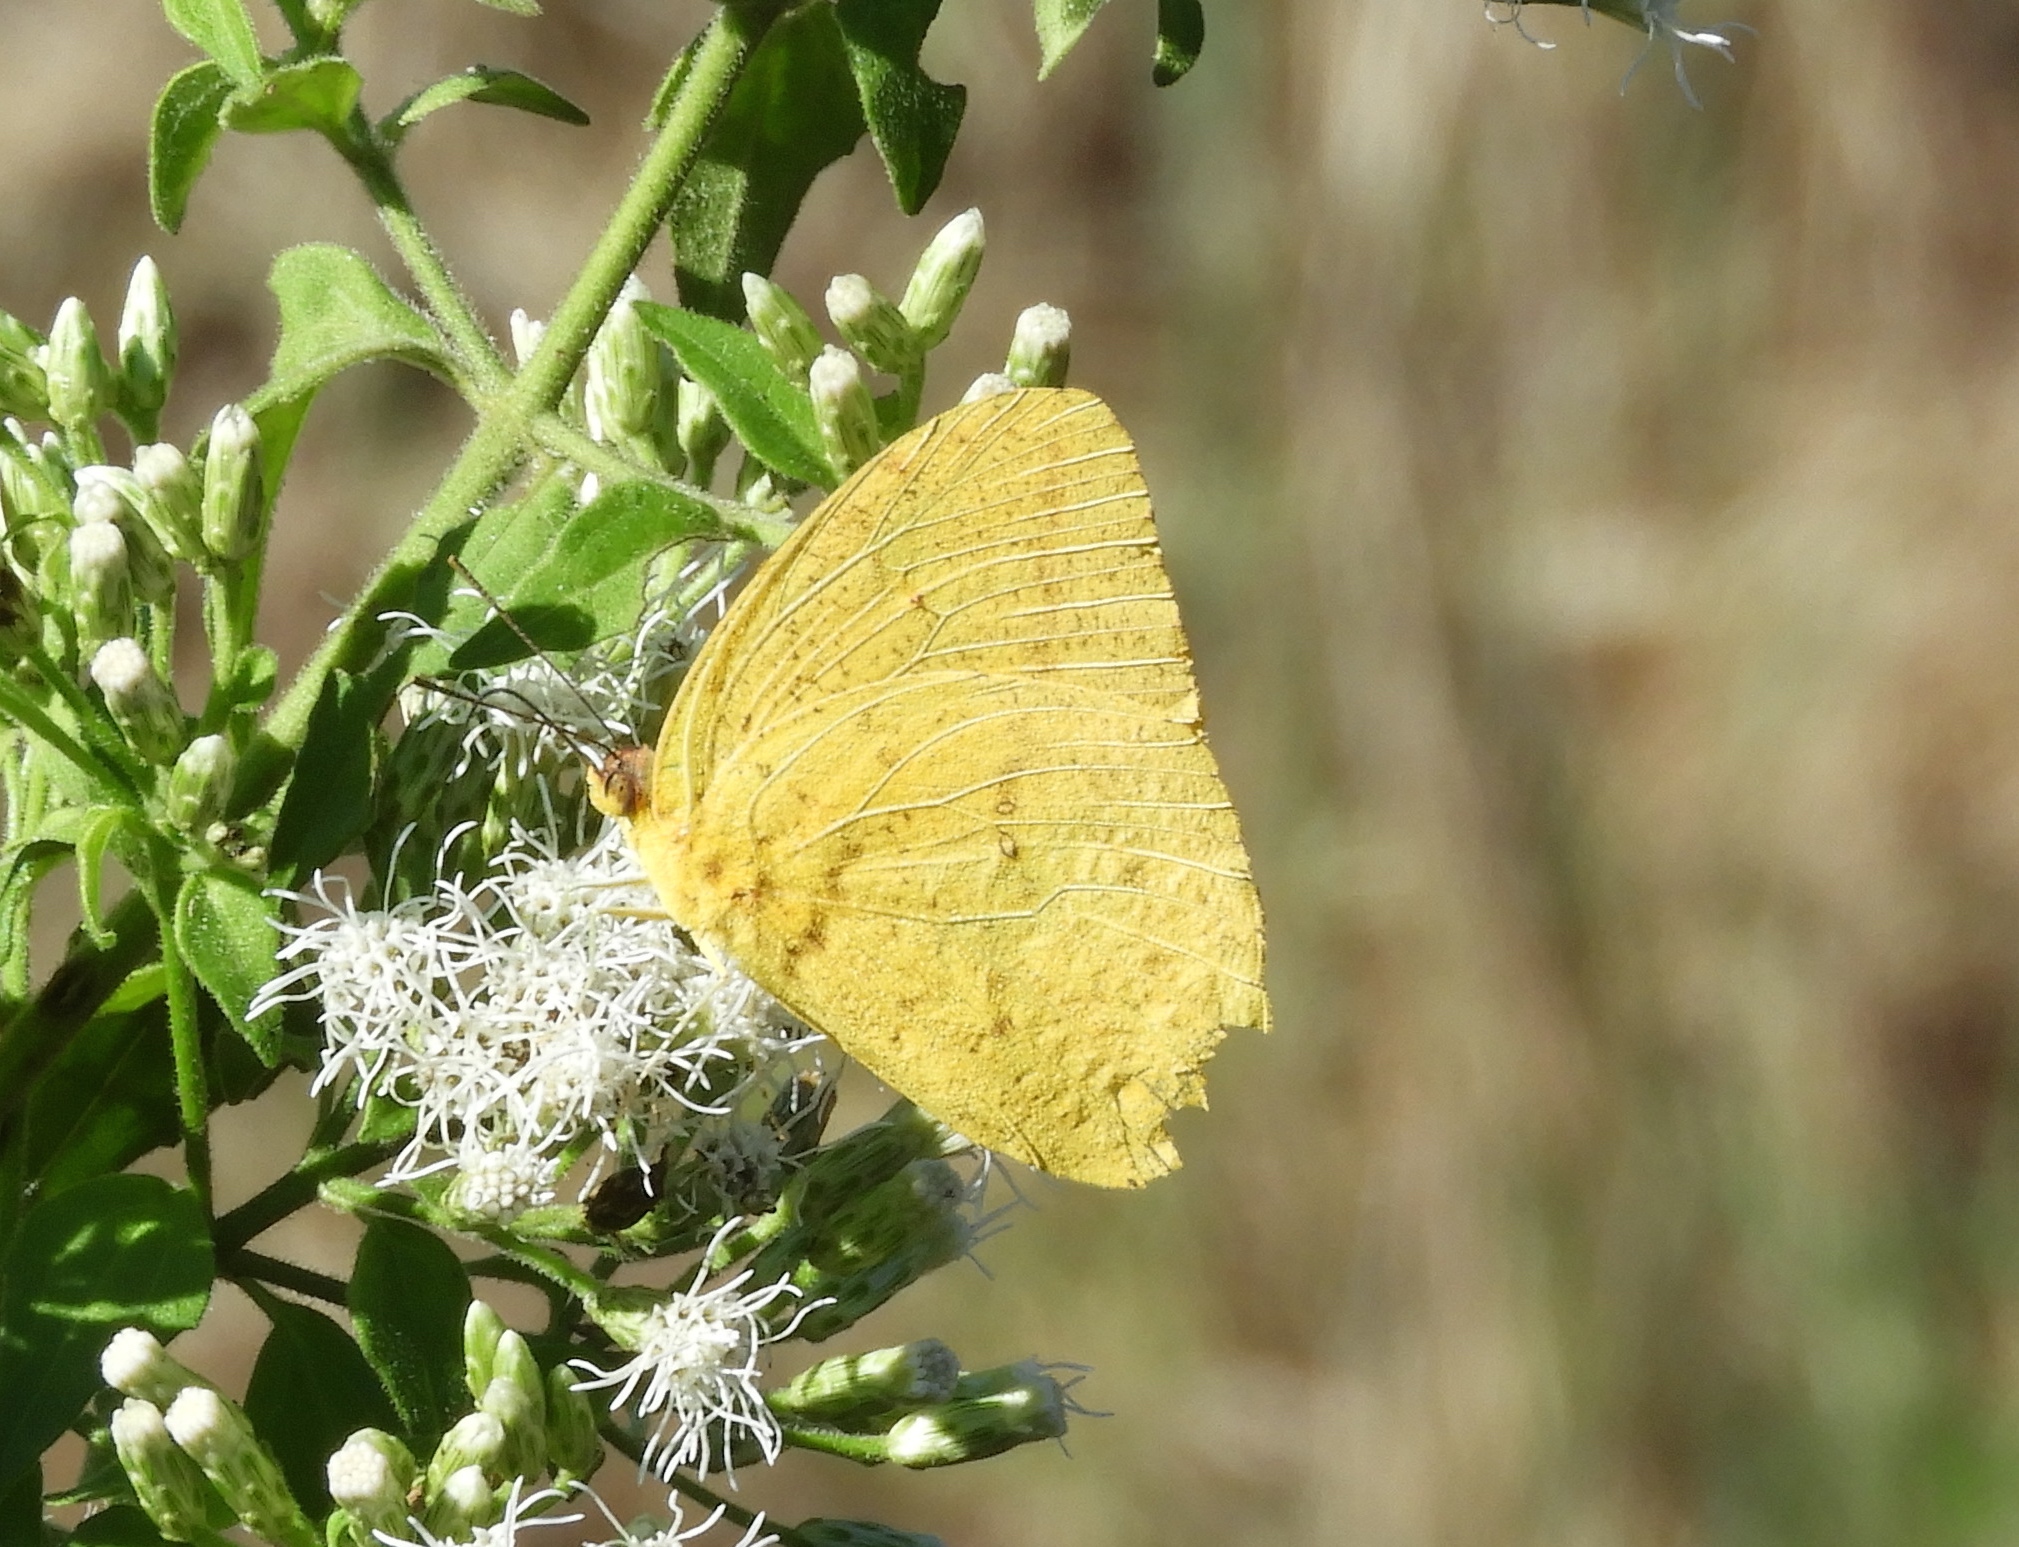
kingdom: Animalia
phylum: Arthropoda
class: Insecta
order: Lepidoptera
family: Pieridae
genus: Phoebis
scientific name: Phoebis agarithe
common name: Large orange sulphur
